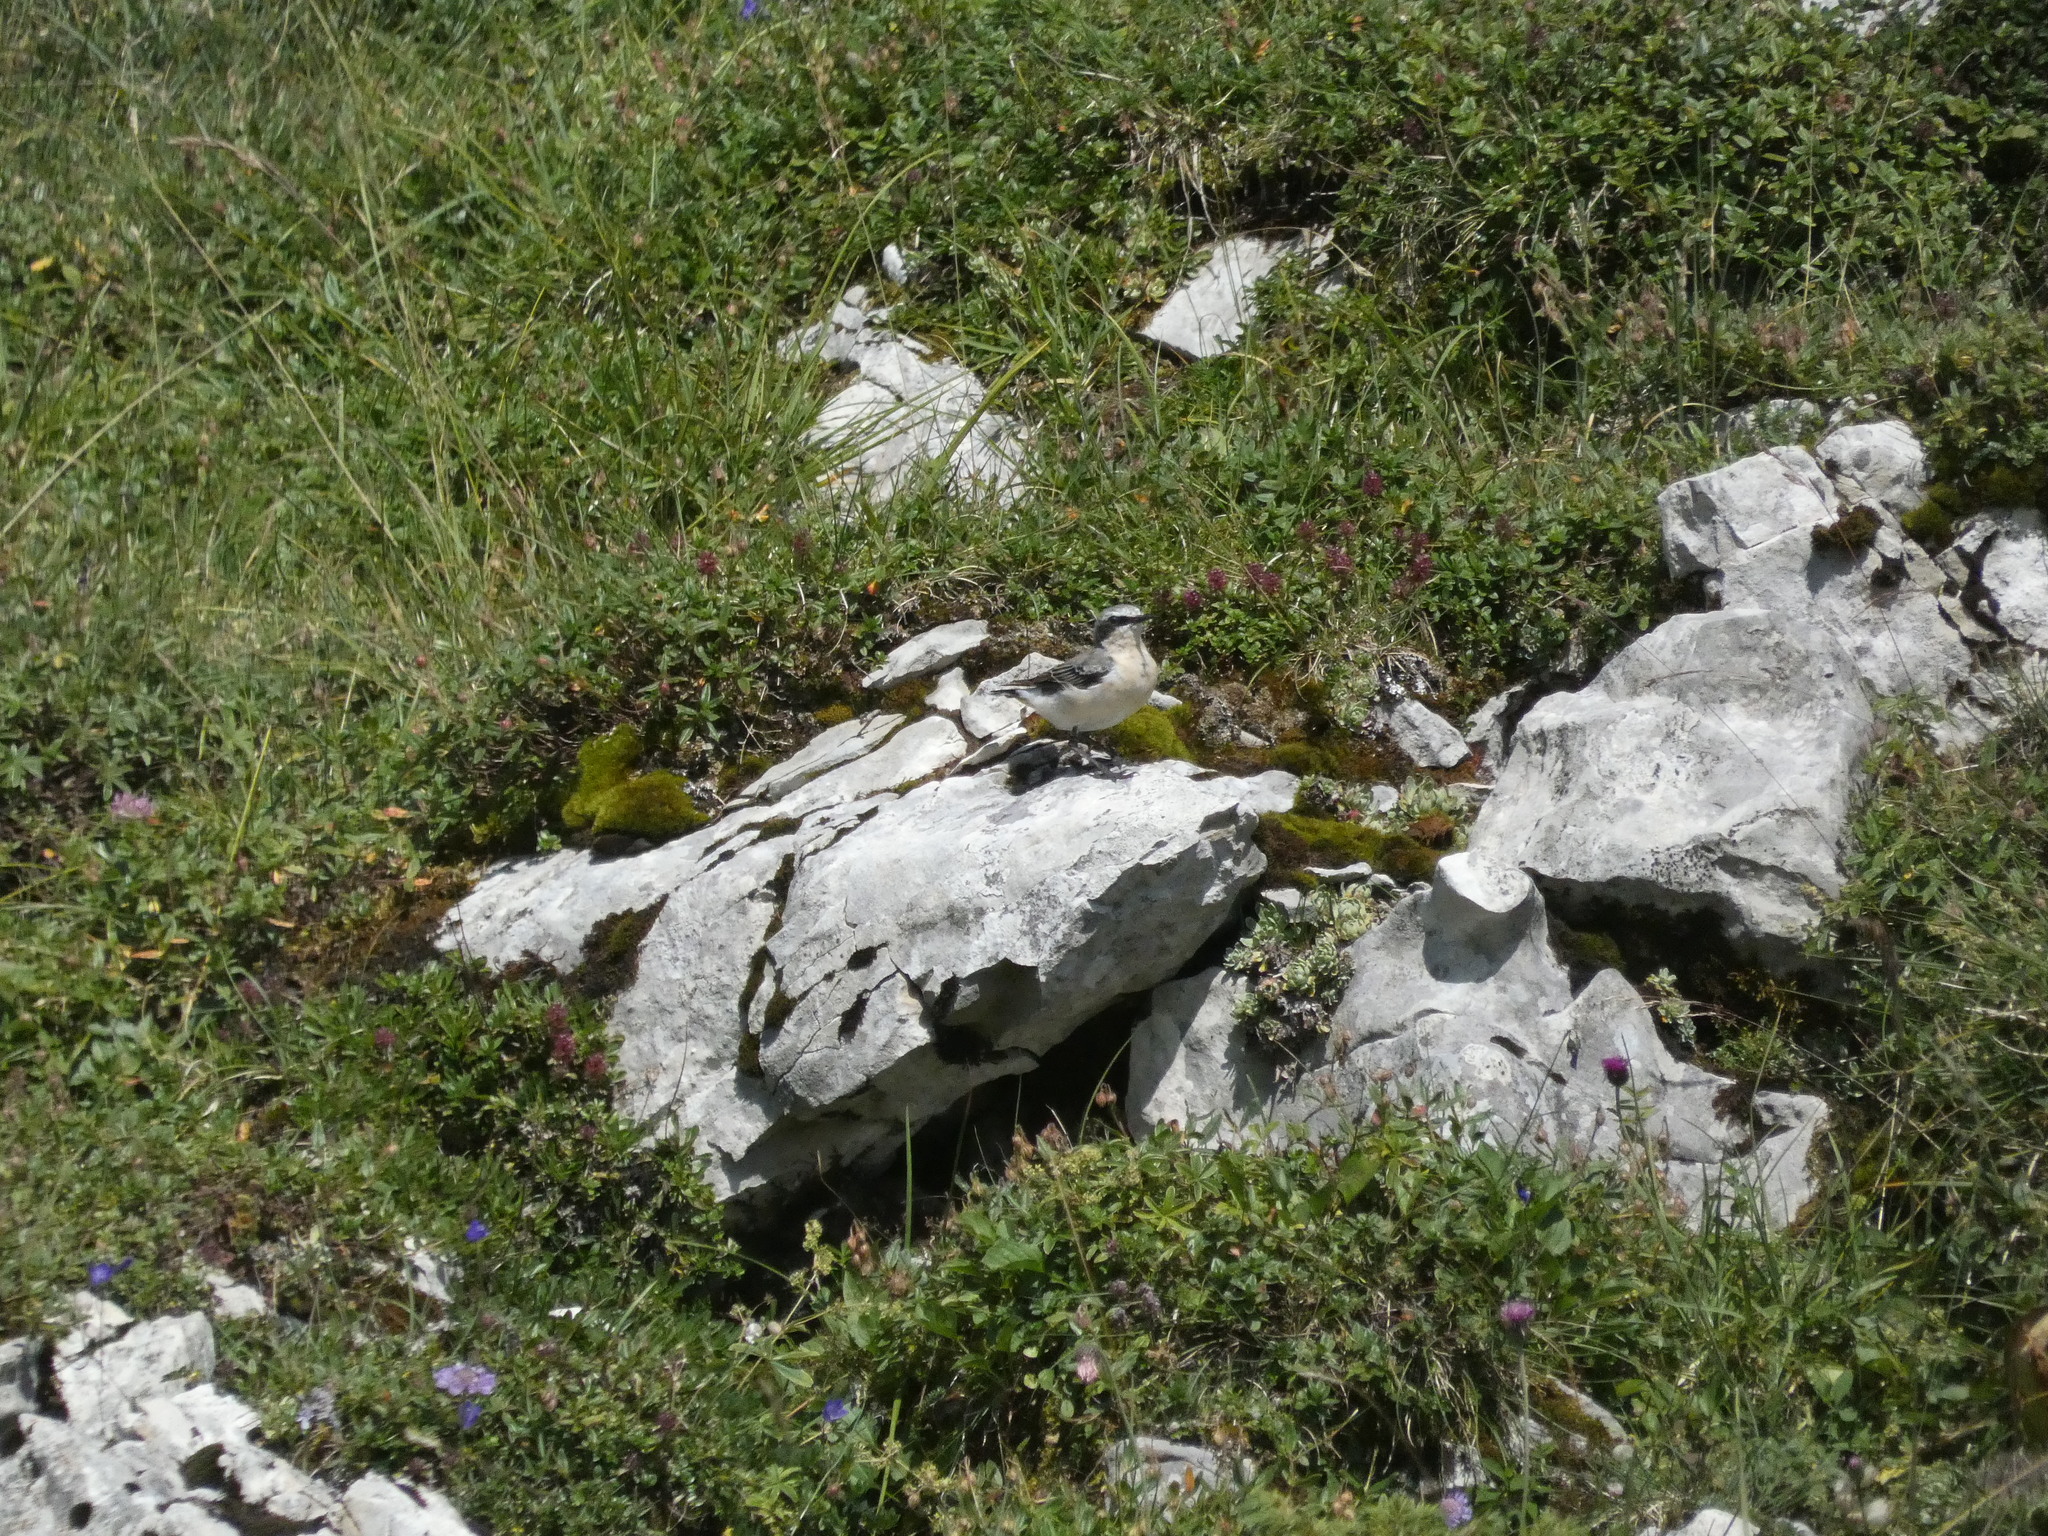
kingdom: Animalia
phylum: Chordata
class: Aves
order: Passeriformes
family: Muscicapidae
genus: Oenanthe
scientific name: Oenanthe oenanthe
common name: Northern wheatear
